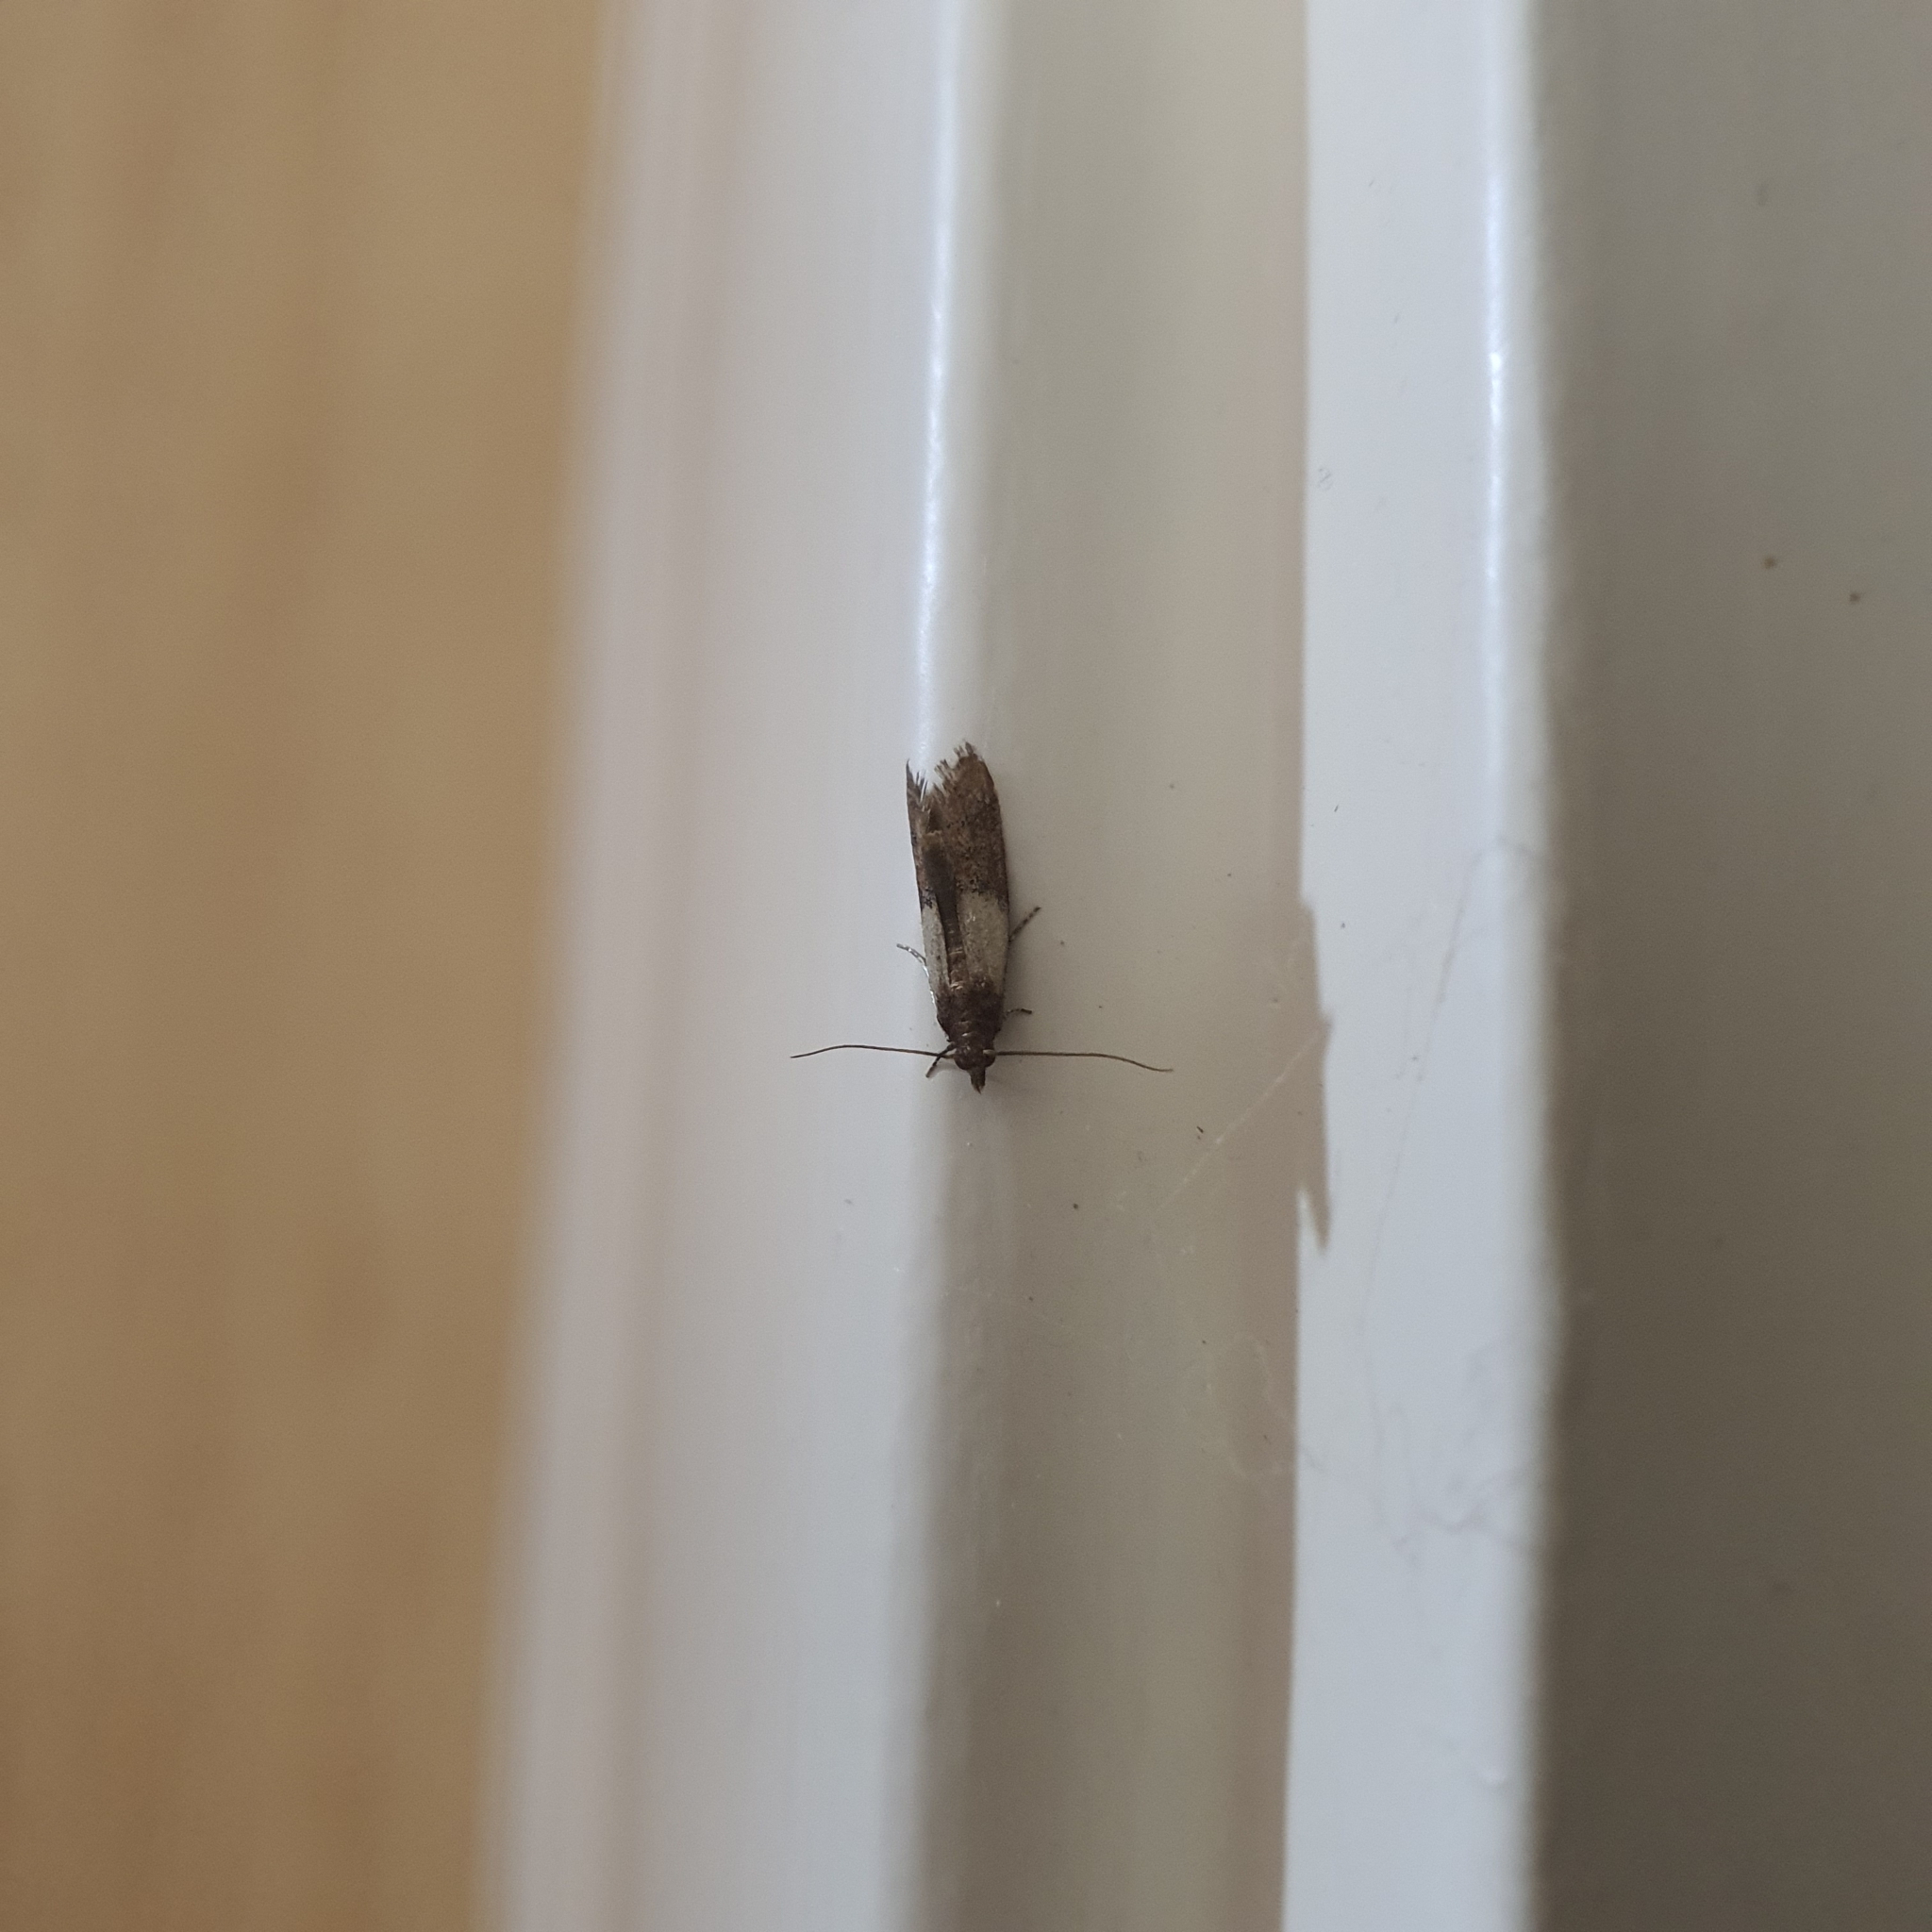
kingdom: Animalia
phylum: Arthropoda
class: Insecta
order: Lepidoptera
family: Pyralidae
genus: Plodia
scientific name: Plodia interpunctella
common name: Indian meal moth
